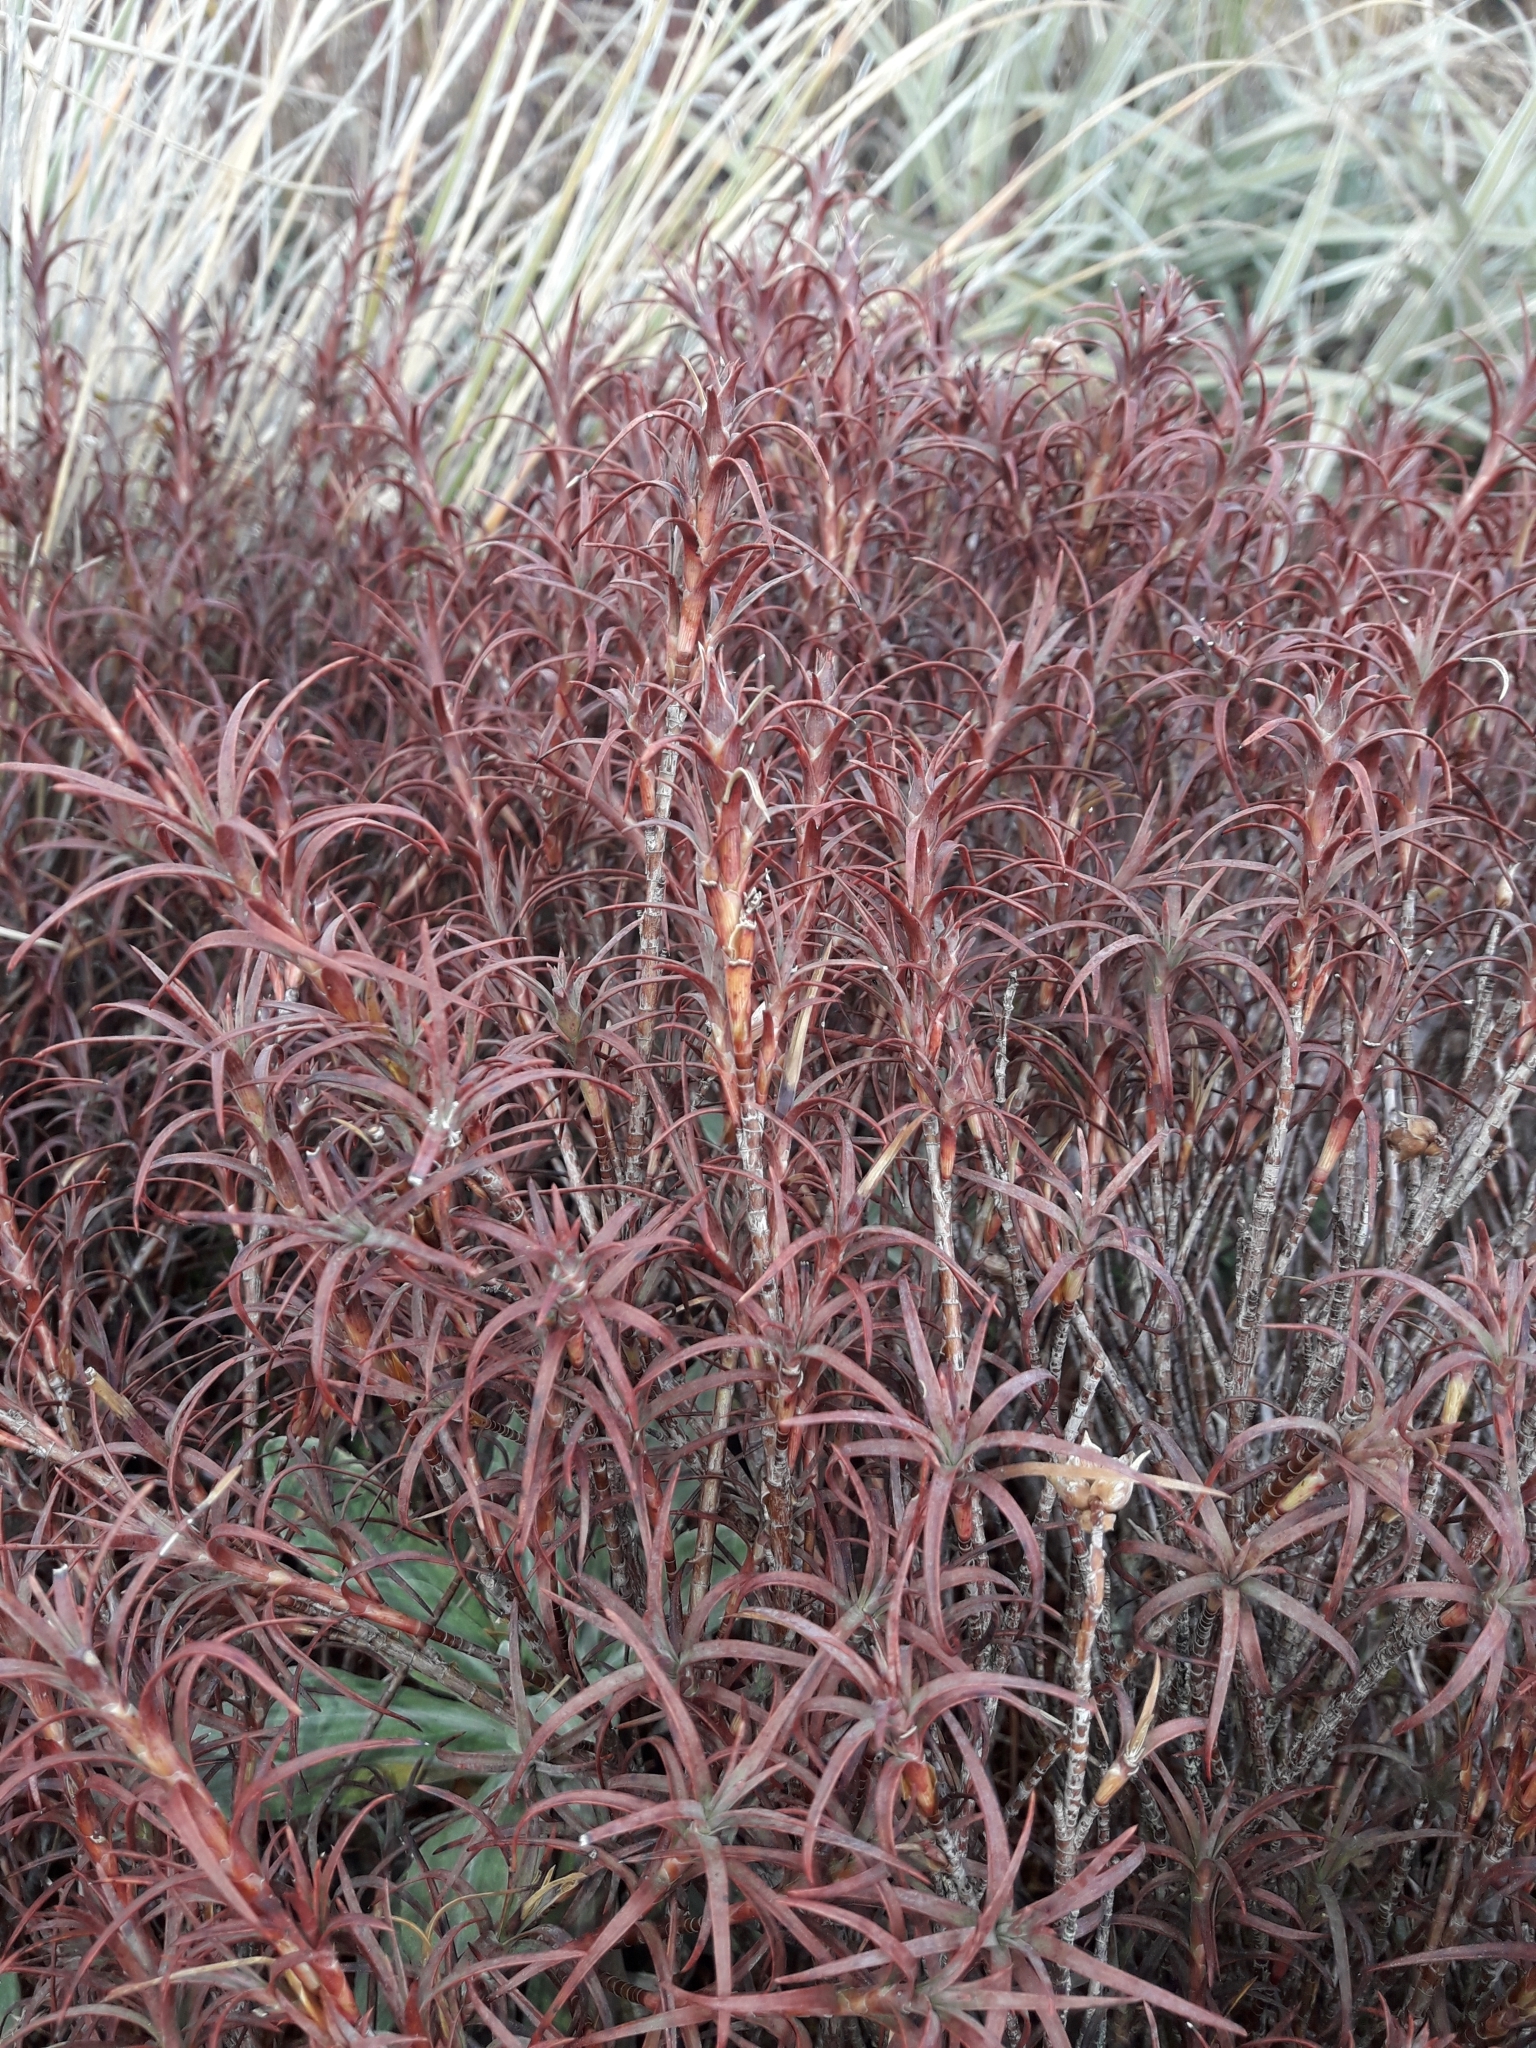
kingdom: Plantae
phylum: Tracheophyta
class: Magnoliopsida
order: Ericales
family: Ericaceae
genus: Dracophyllum
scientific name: Dracophyllum recurvum
